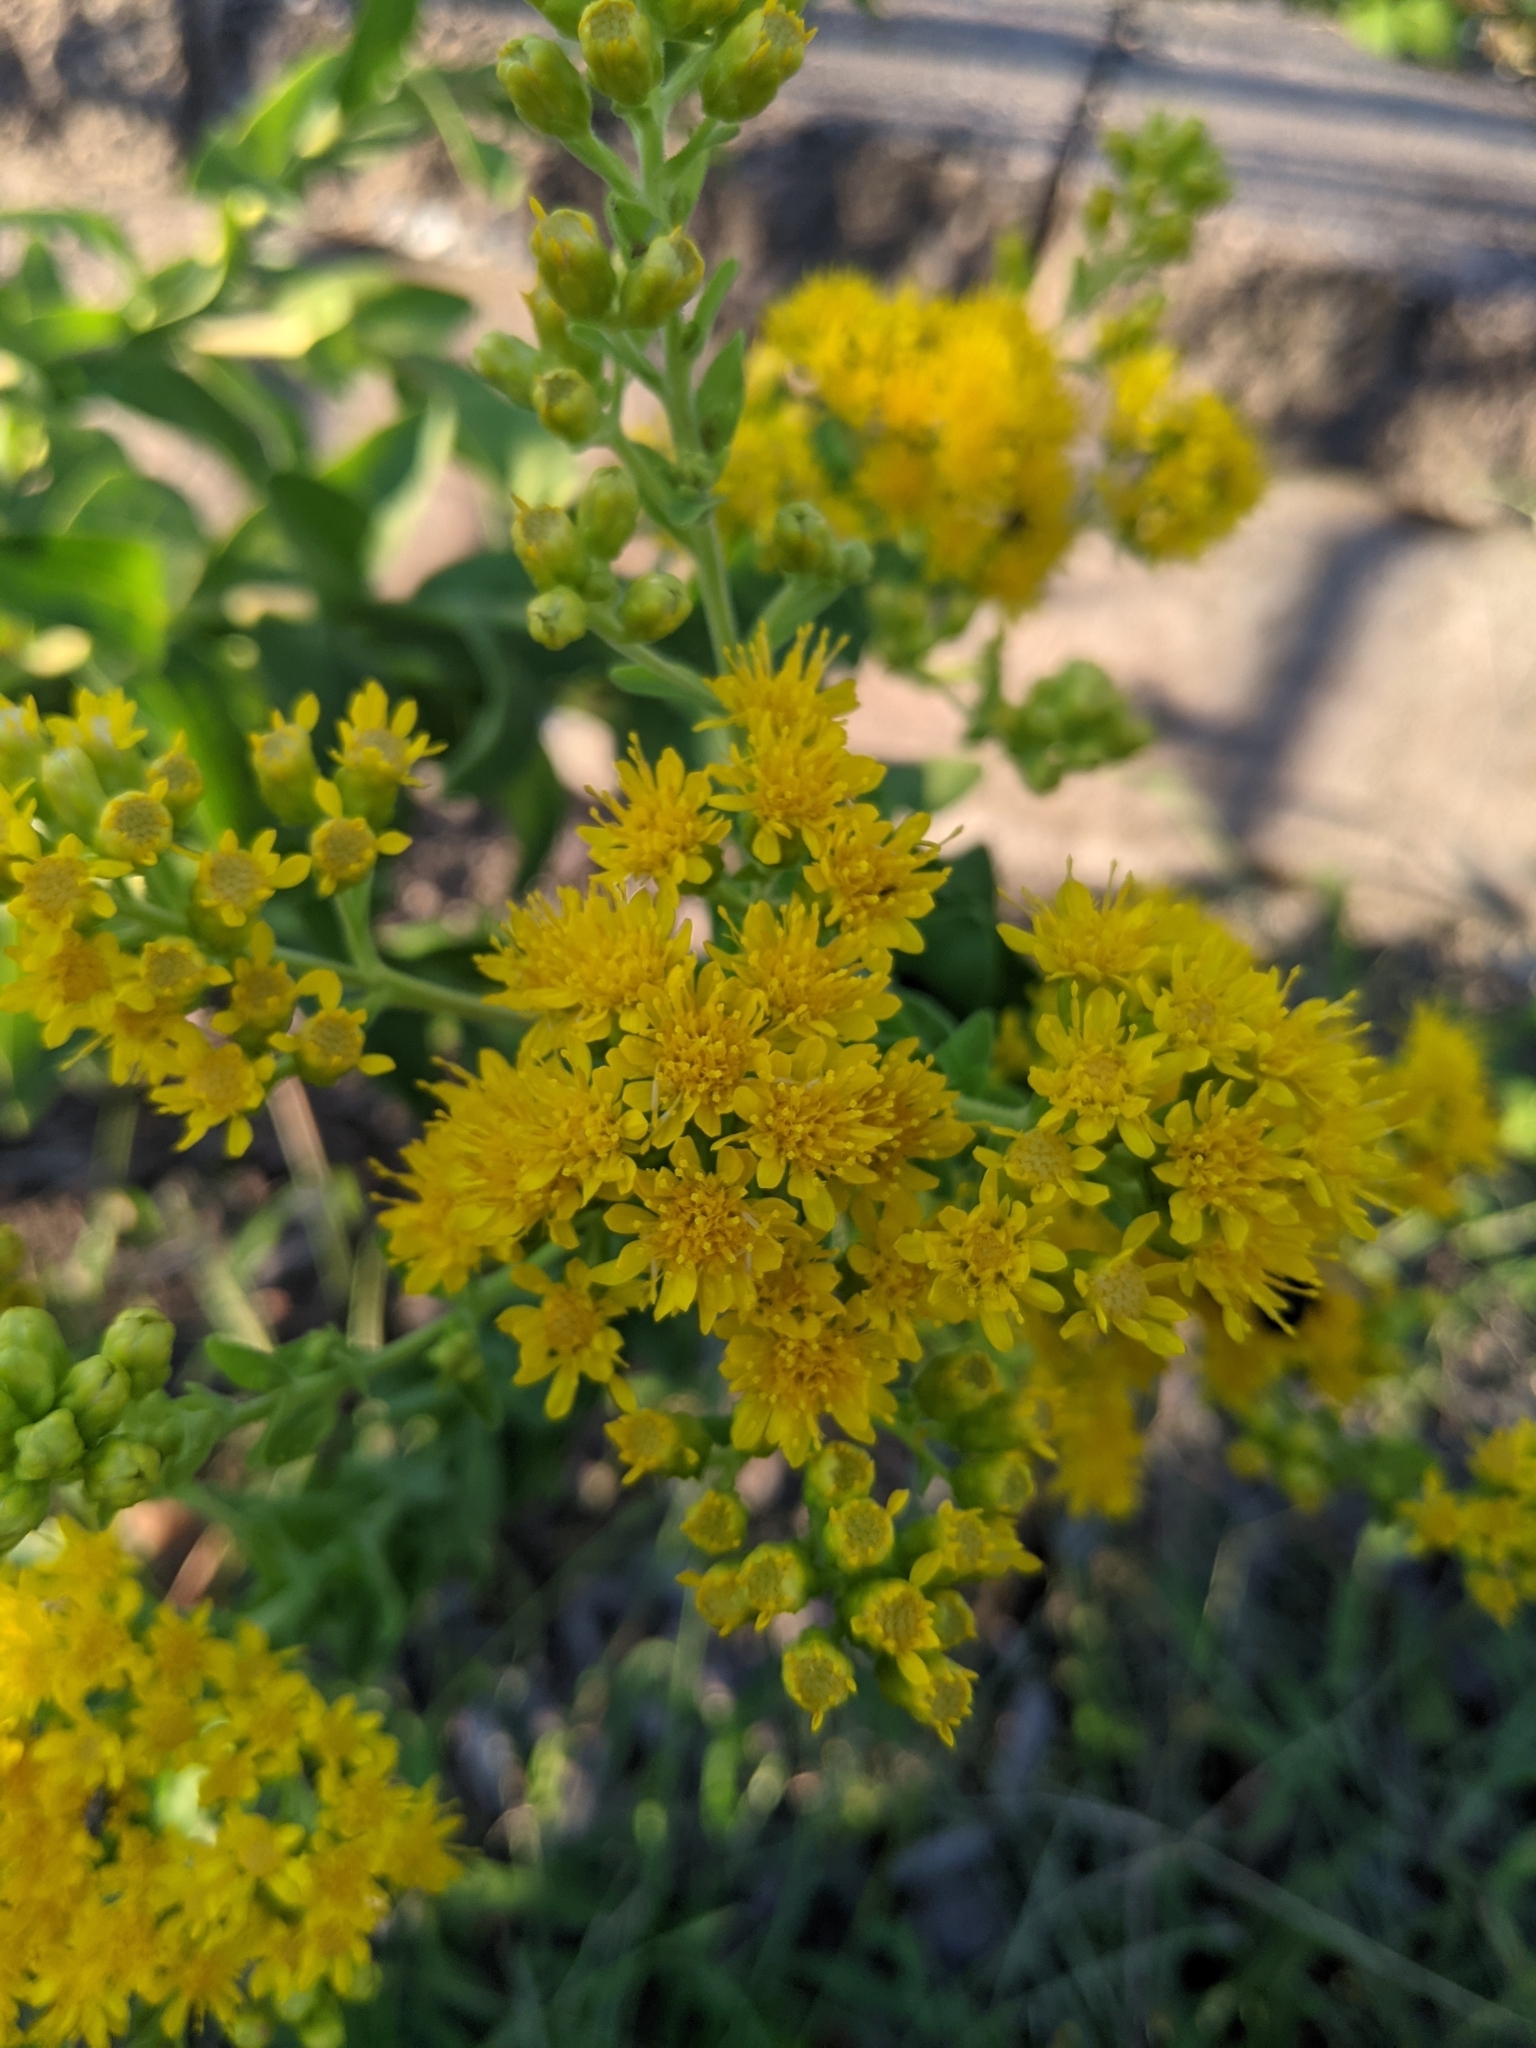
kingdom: Plantae
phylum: Tracheophyta
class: Magnoliopsida
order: Asterales
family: Asteraceae
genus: Solidago
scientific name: Solidago rigida
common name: Rigid goldenrod
